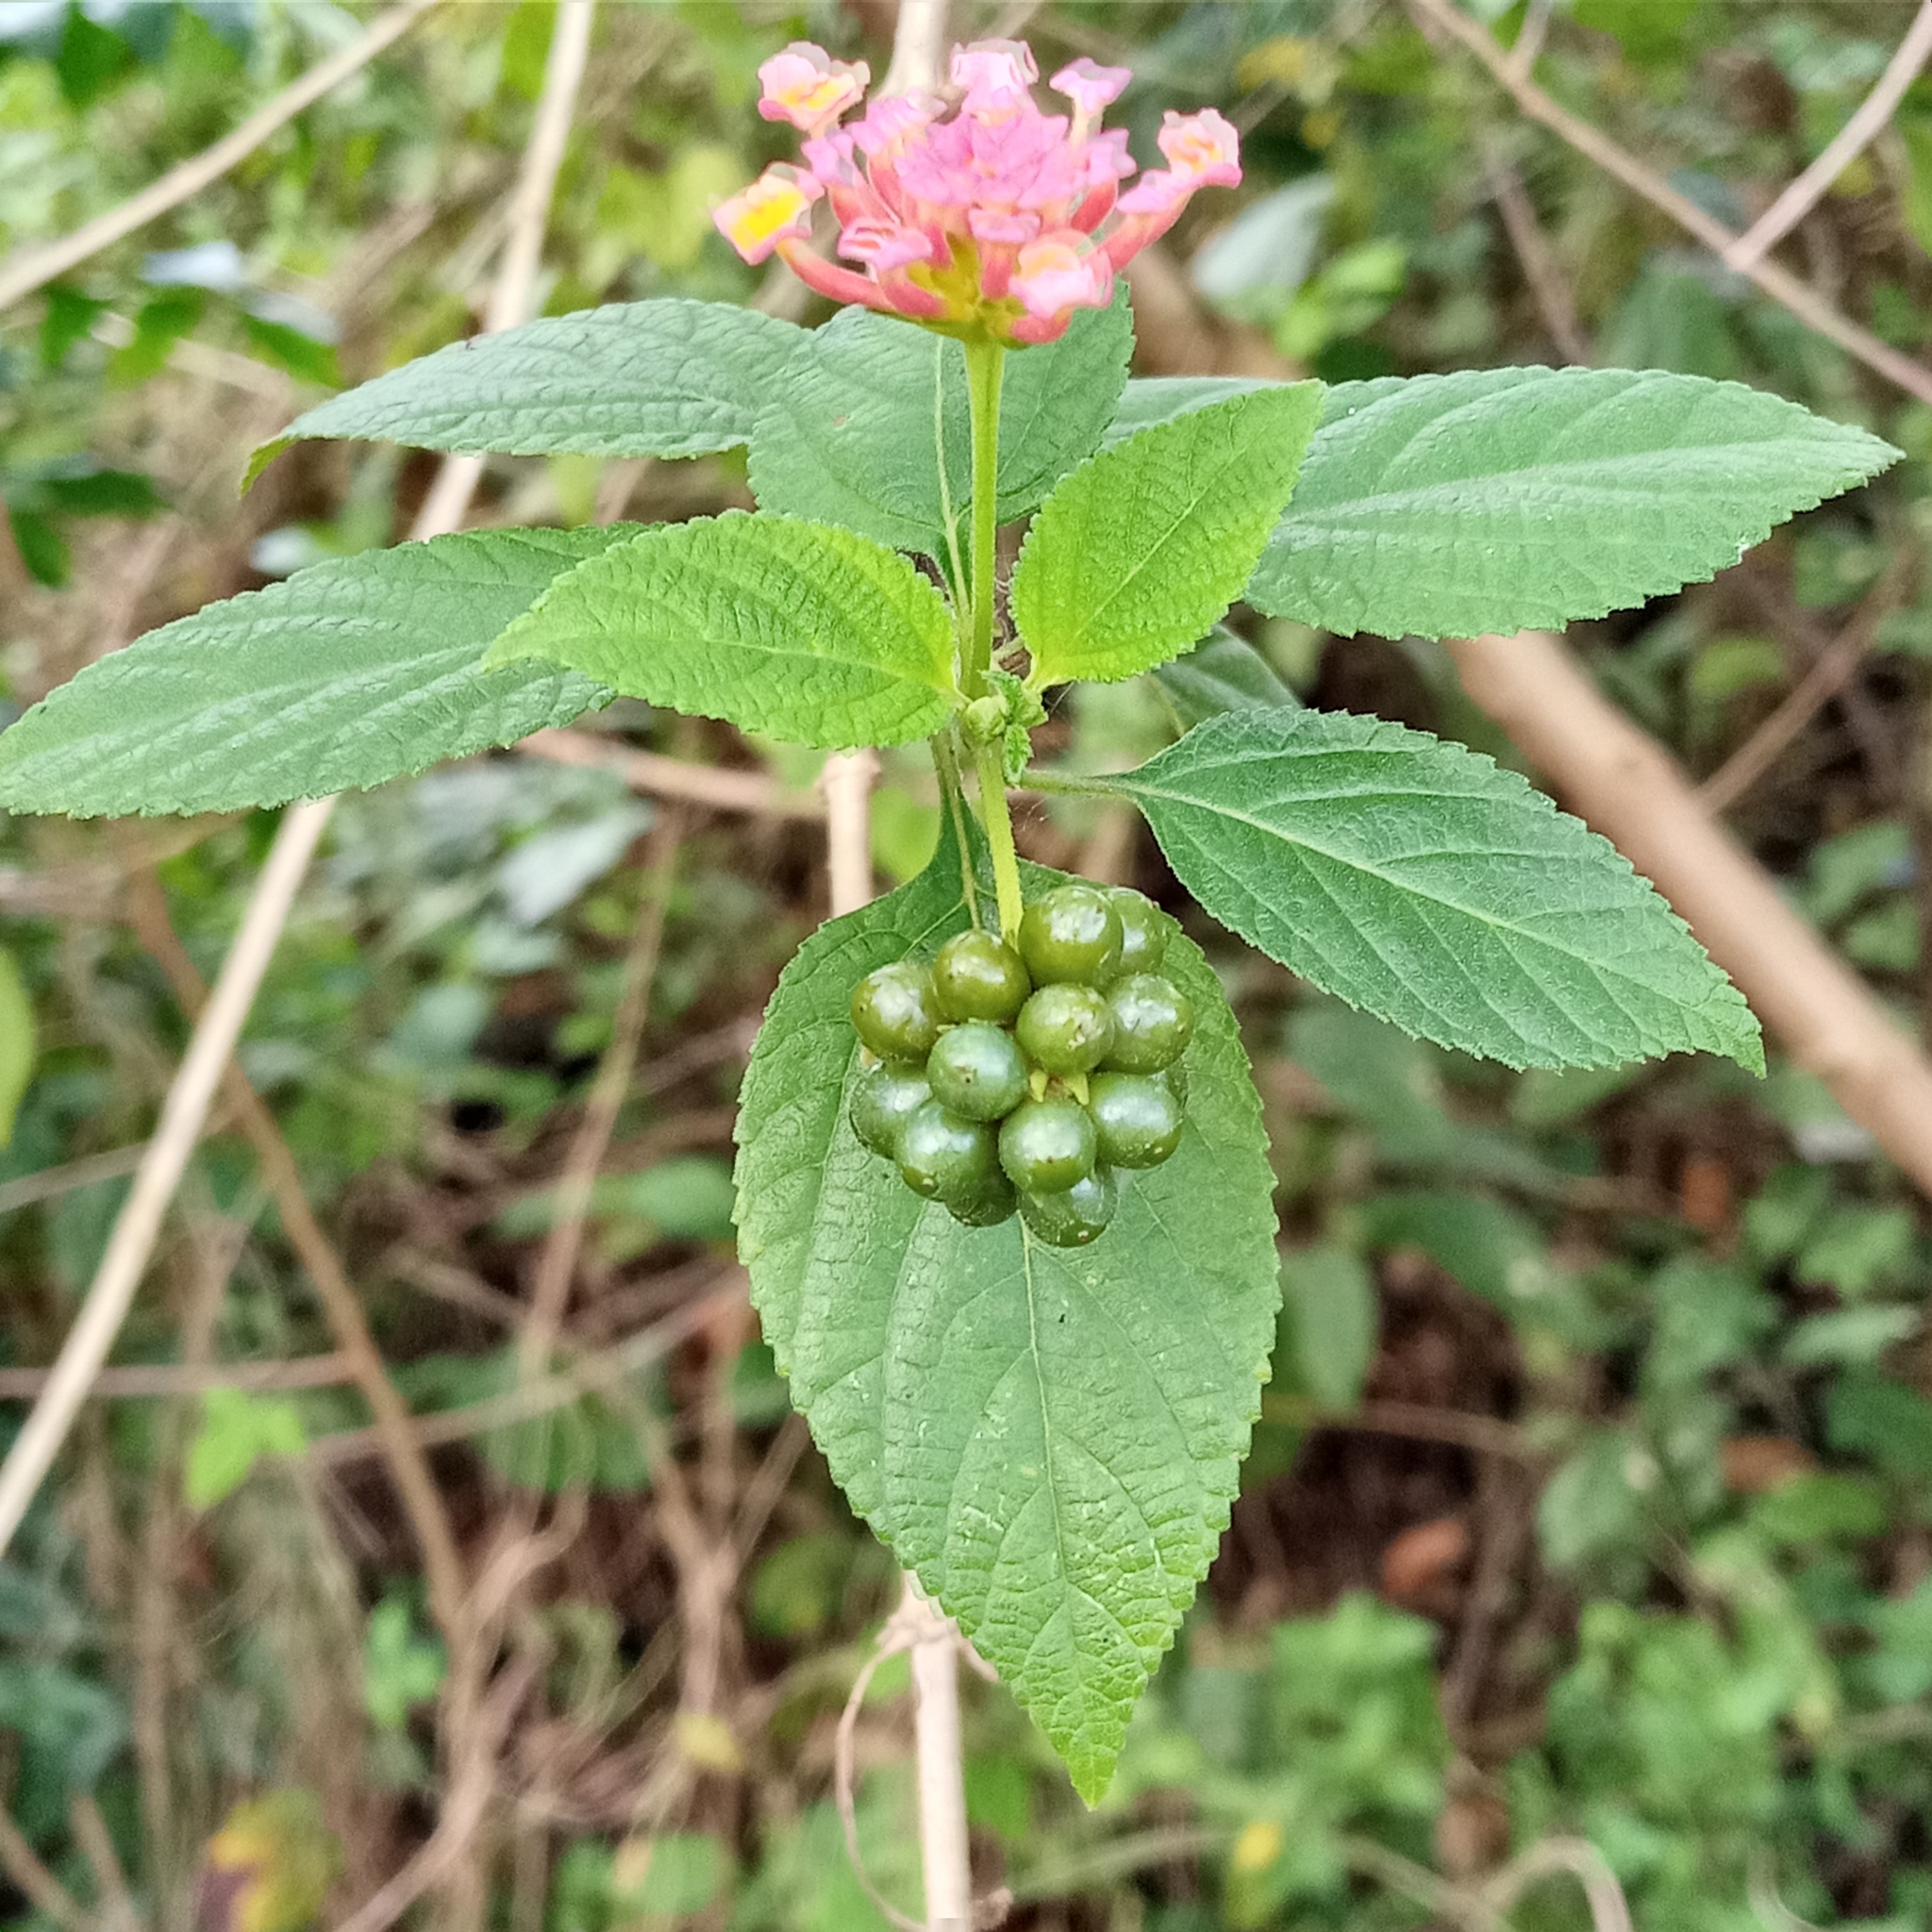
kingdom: Plantae
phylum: Tracheophyta
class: Magnoliopsida
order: Lamiales
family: Verbenaceae
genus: Lantana
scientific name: Lantana camara
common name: Lantana
